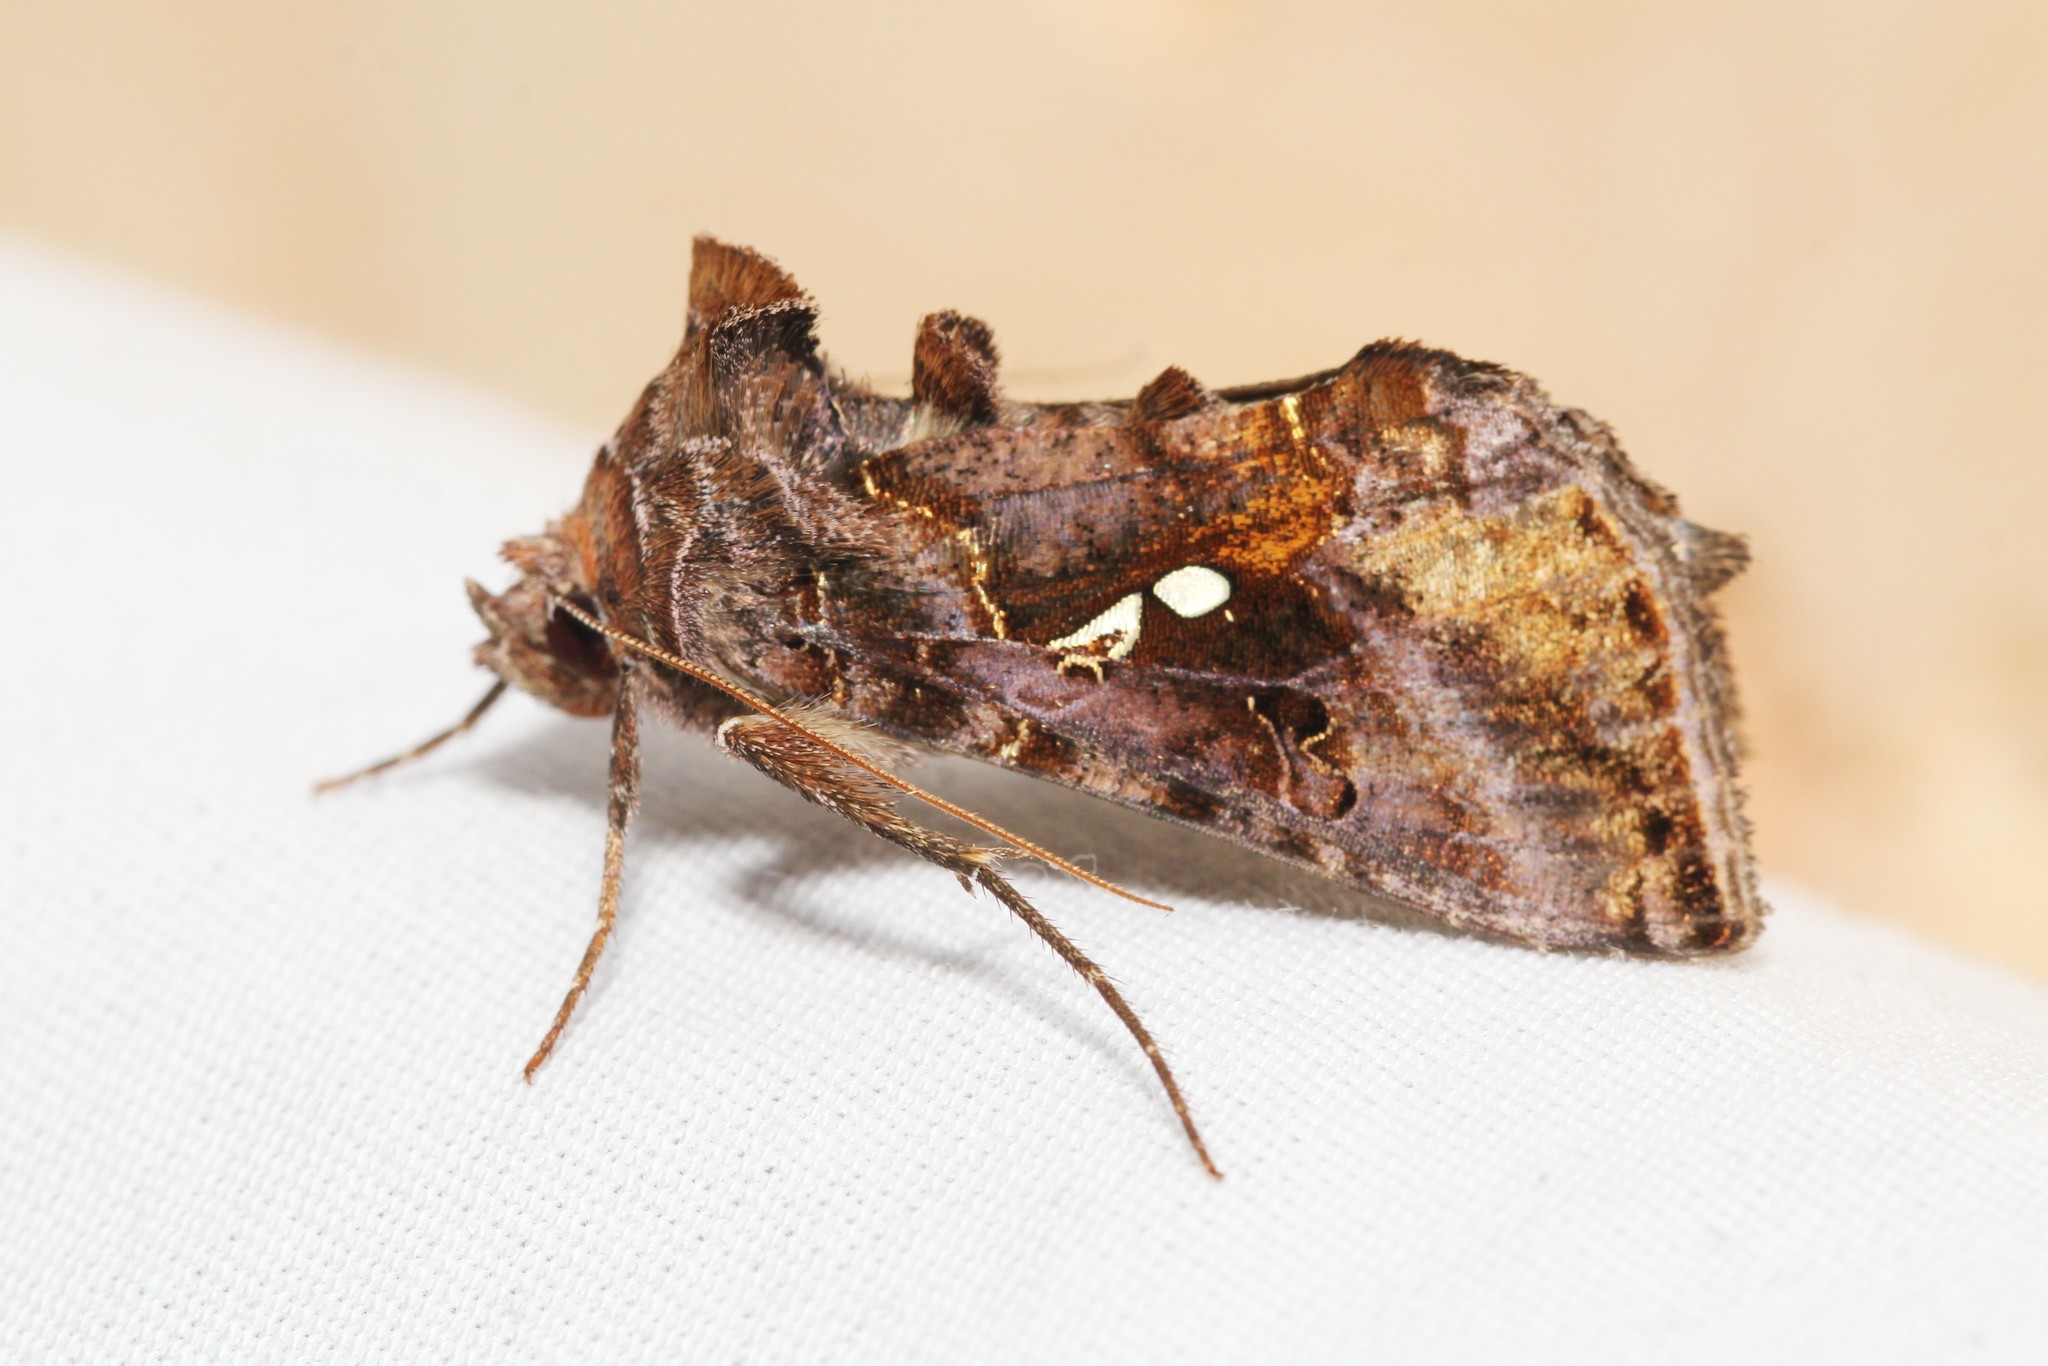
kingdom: Animalia
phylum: Arthropoda
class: Insecta
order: Lepidoptera
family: Noctuidae
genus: Autographa
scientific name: Autographa precationis
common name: Common looper moth
